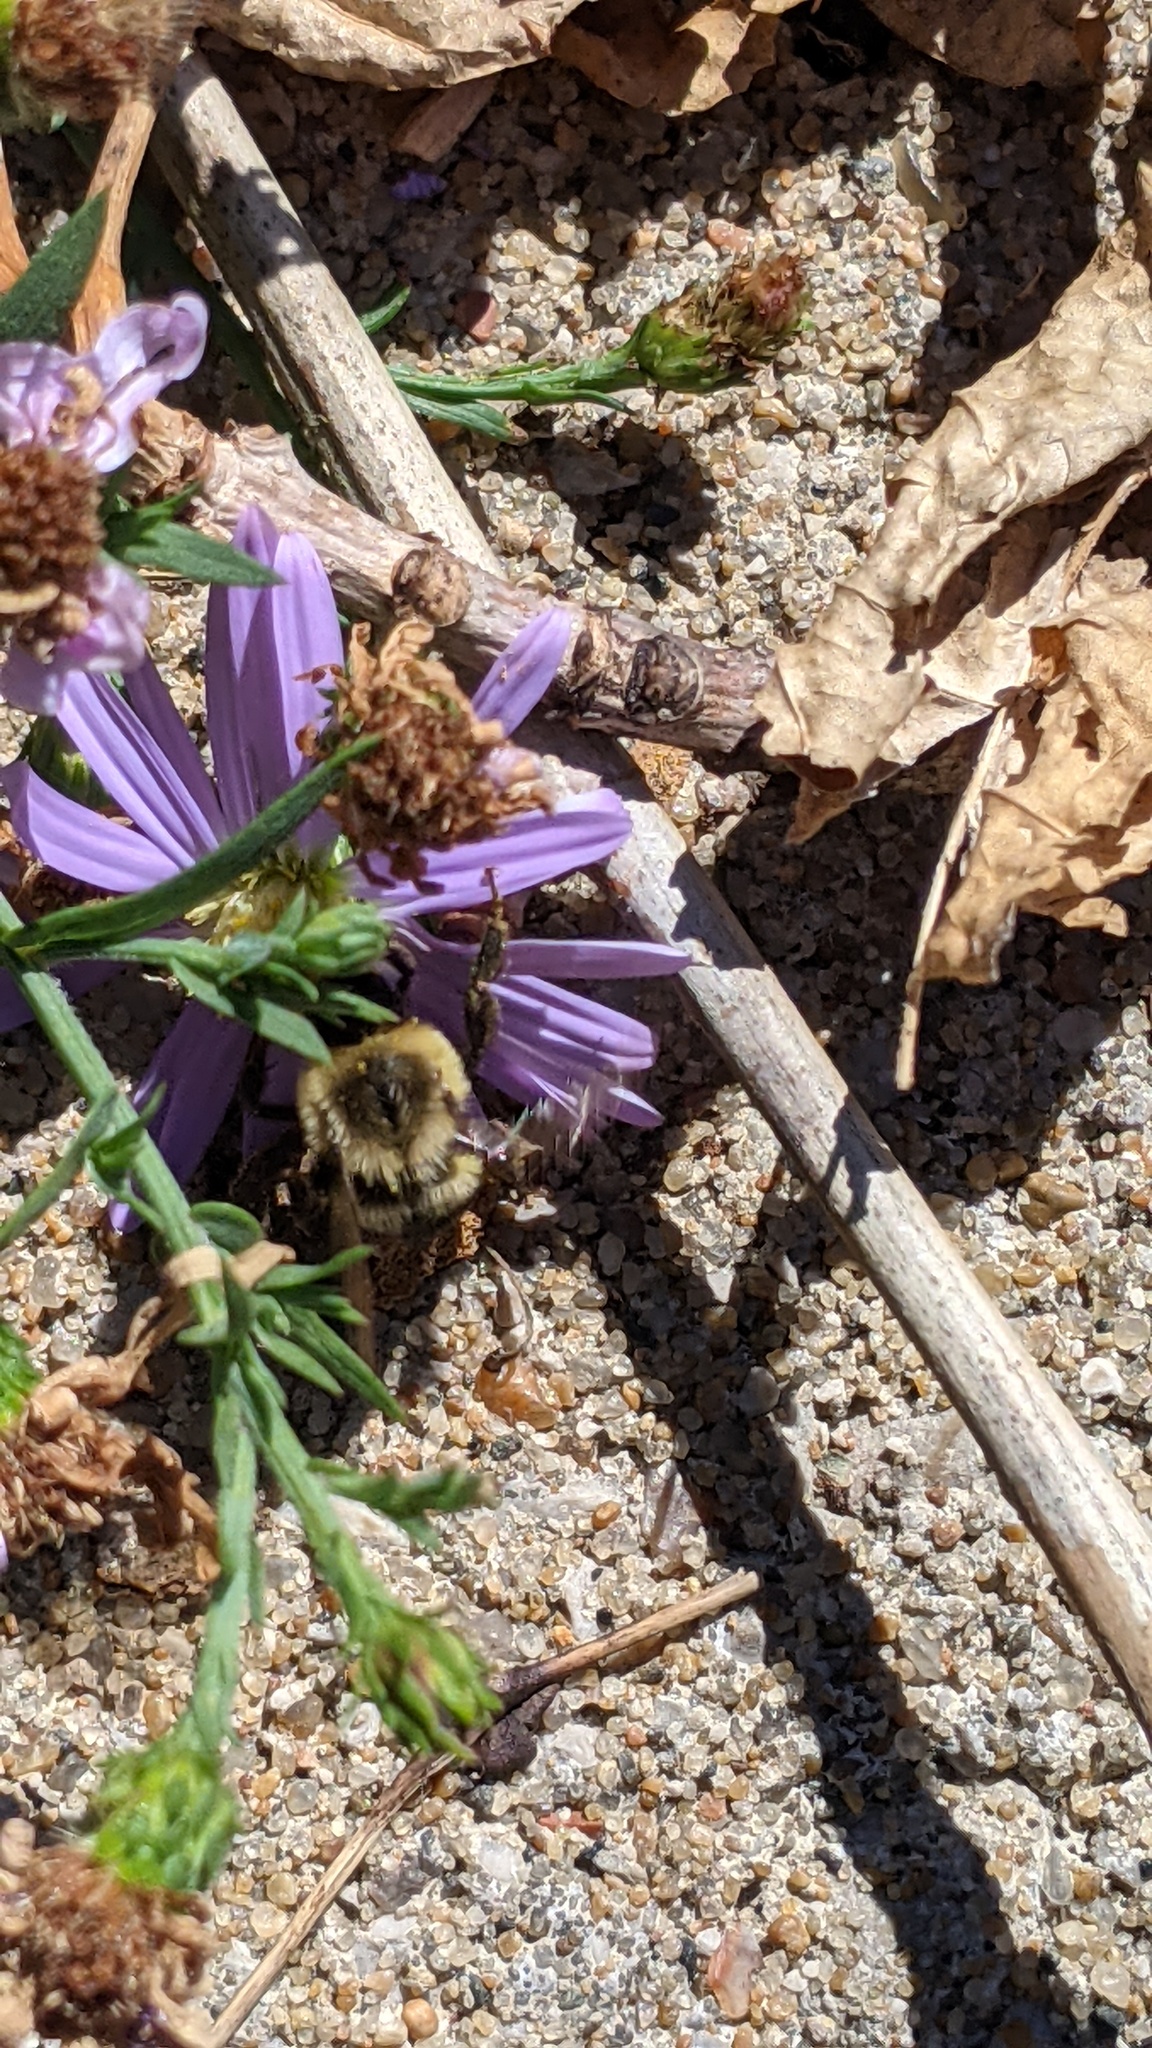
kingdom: Animalia
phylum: Arthropoda
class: Insecta
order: Hymenoptera
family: Apidae
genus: Bombus
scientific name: Bombus impatiens
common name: Common eastern bumble bee
